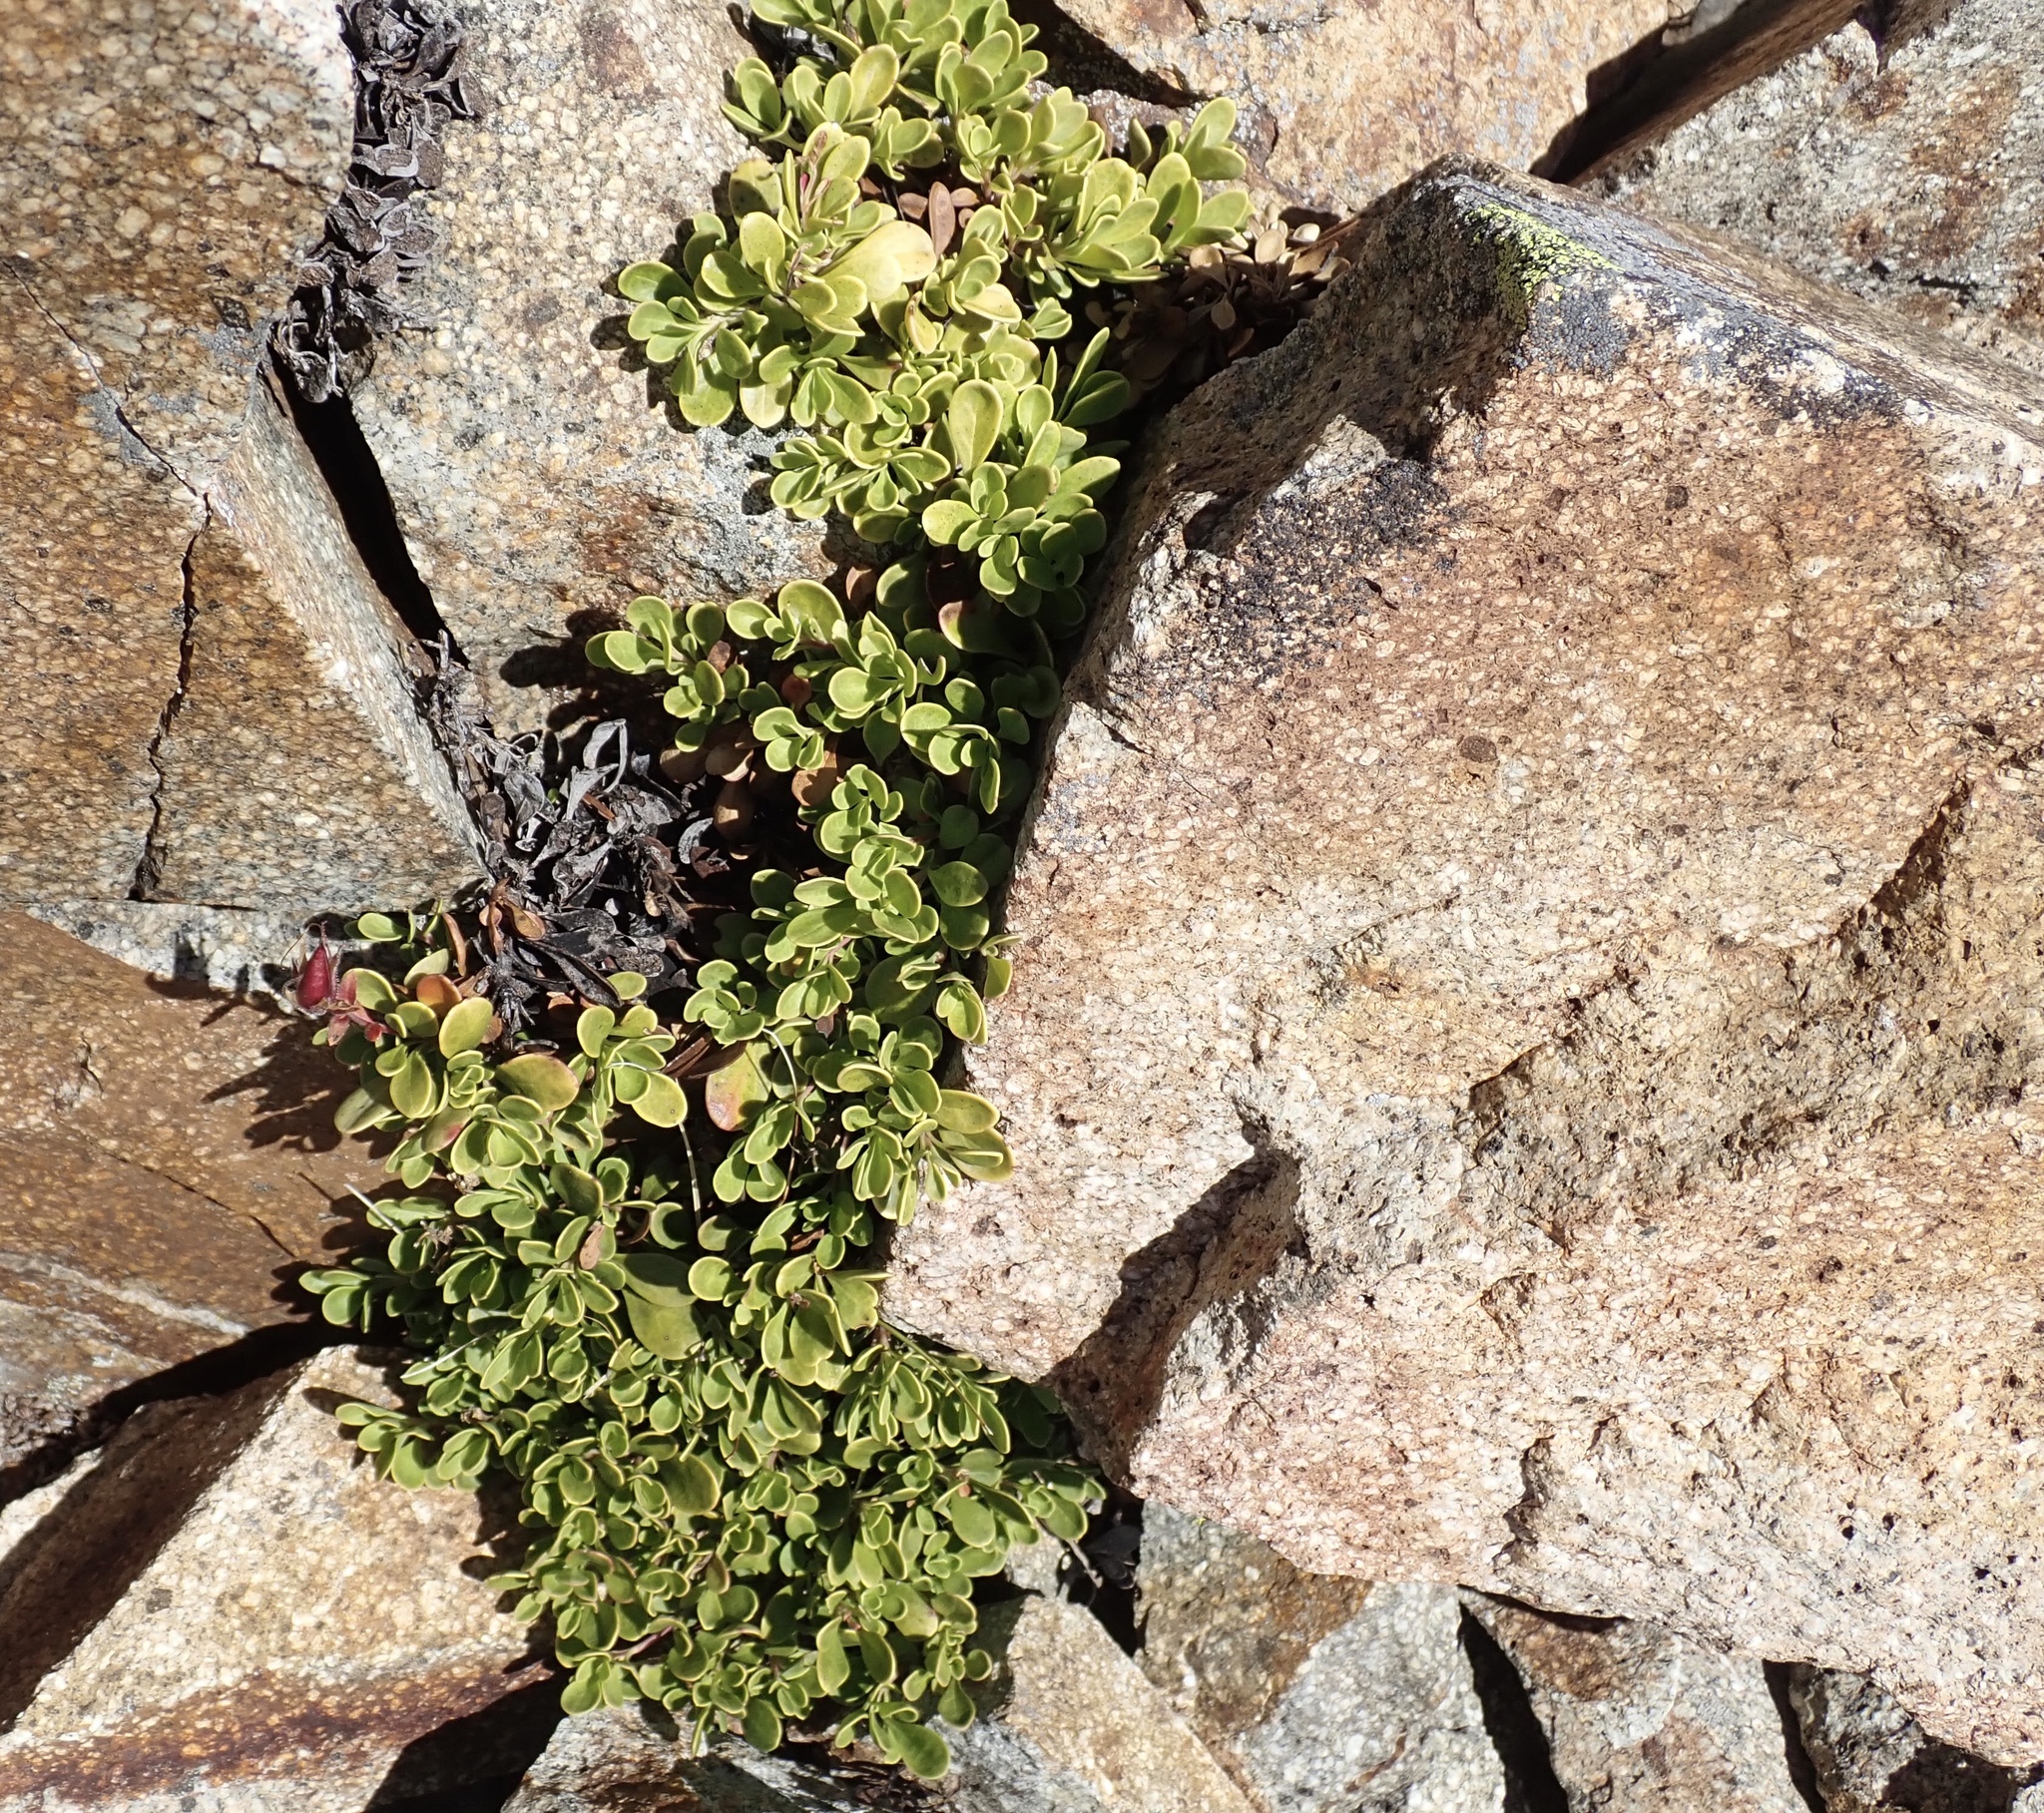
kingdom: Plantae
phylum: Tracheophyta
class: Magnoliopsida
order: Lamiales
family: Plantaginaceae
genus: Penstemon
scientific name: Penstemon davidsonii
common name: Davidson's penstemon
